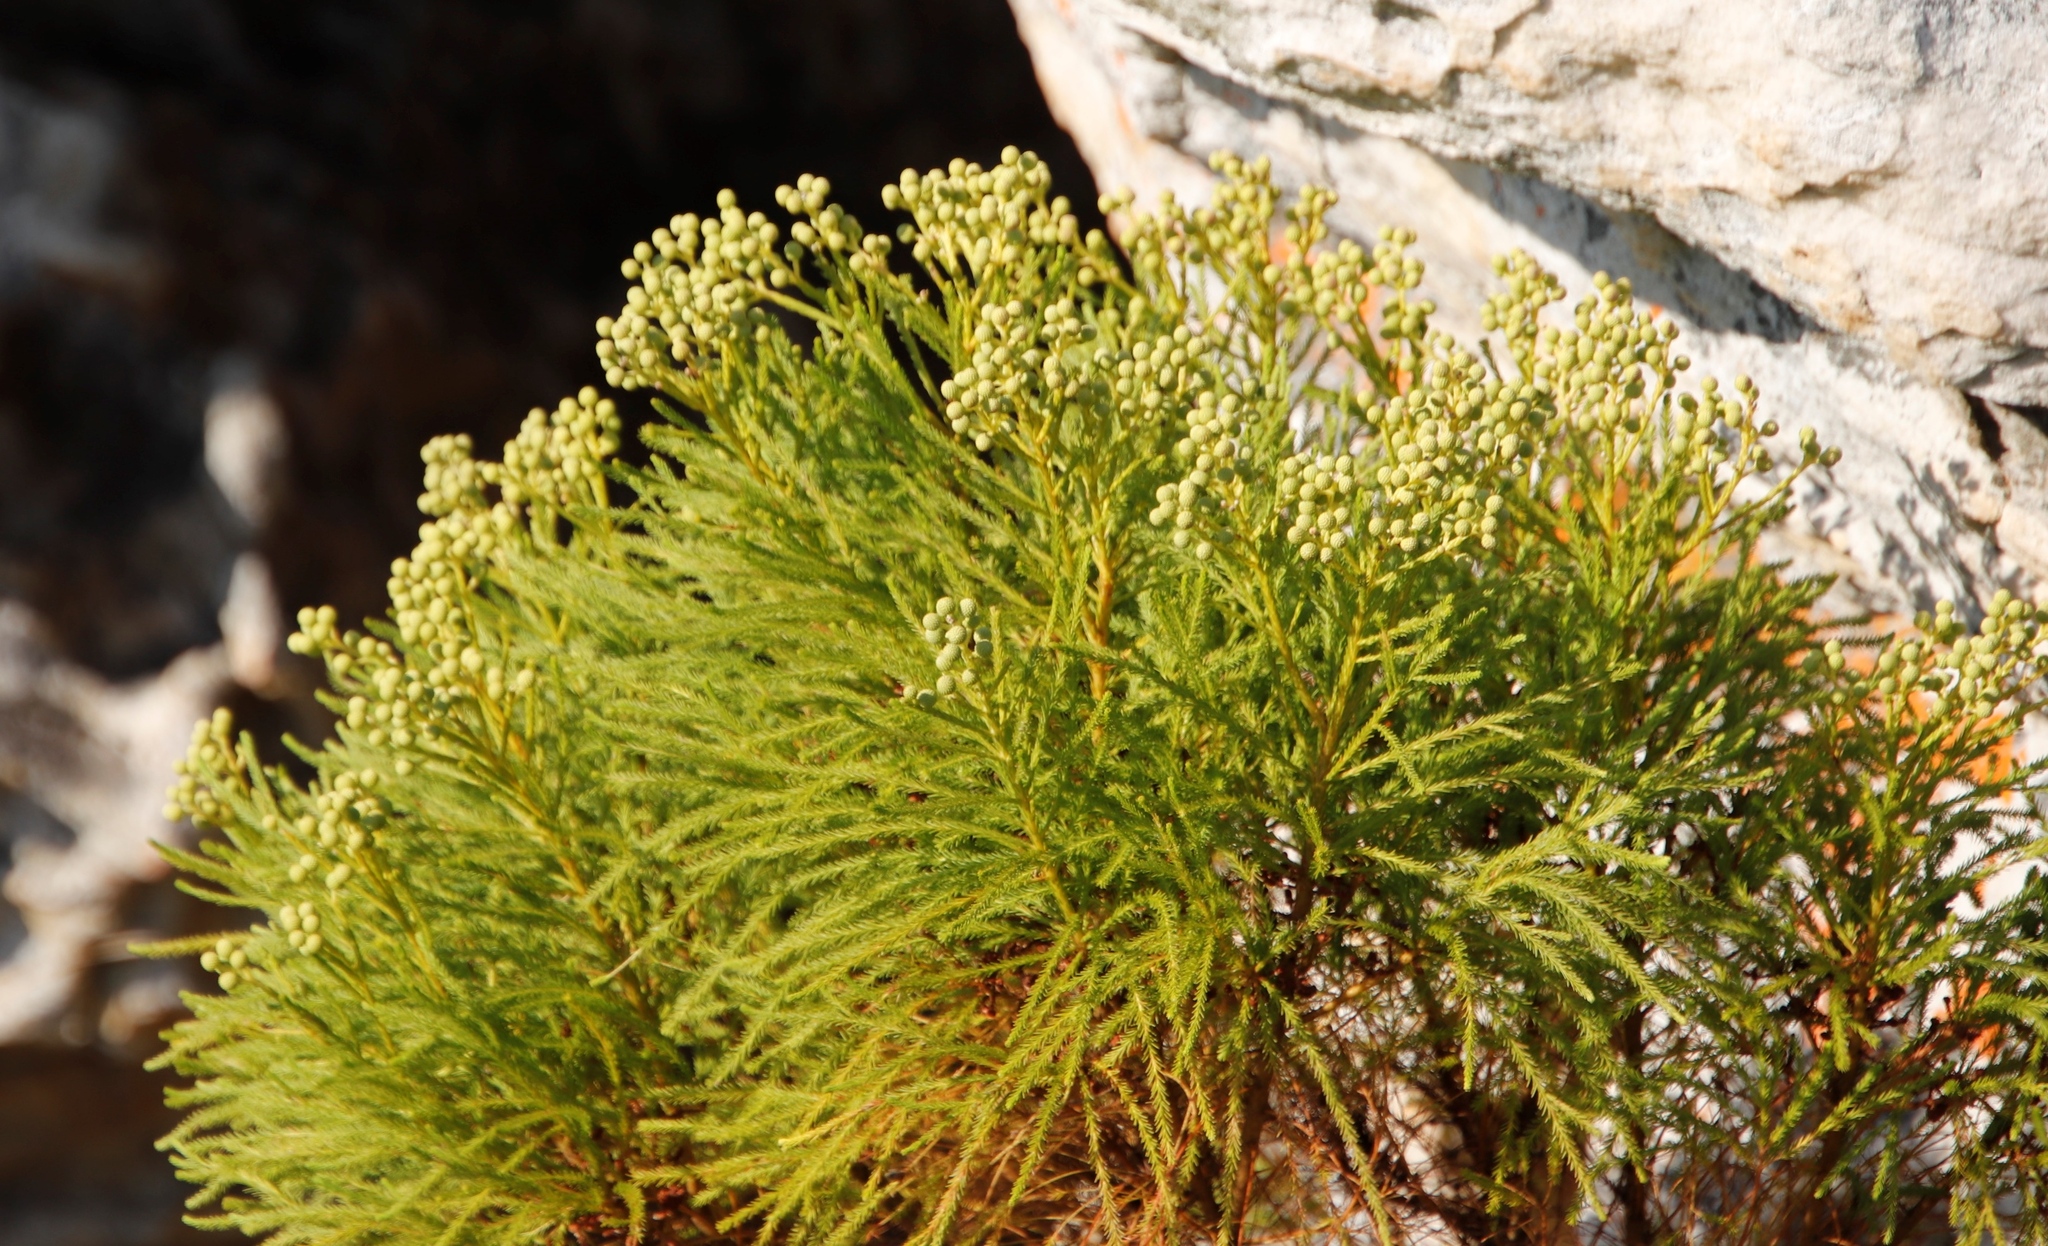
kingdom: Plantae
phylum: Tracheophyta
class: Magnoliopsida
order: Bruniales
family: Bruniaceae
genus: Berzelia
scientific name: Berzelia lanuginosa
